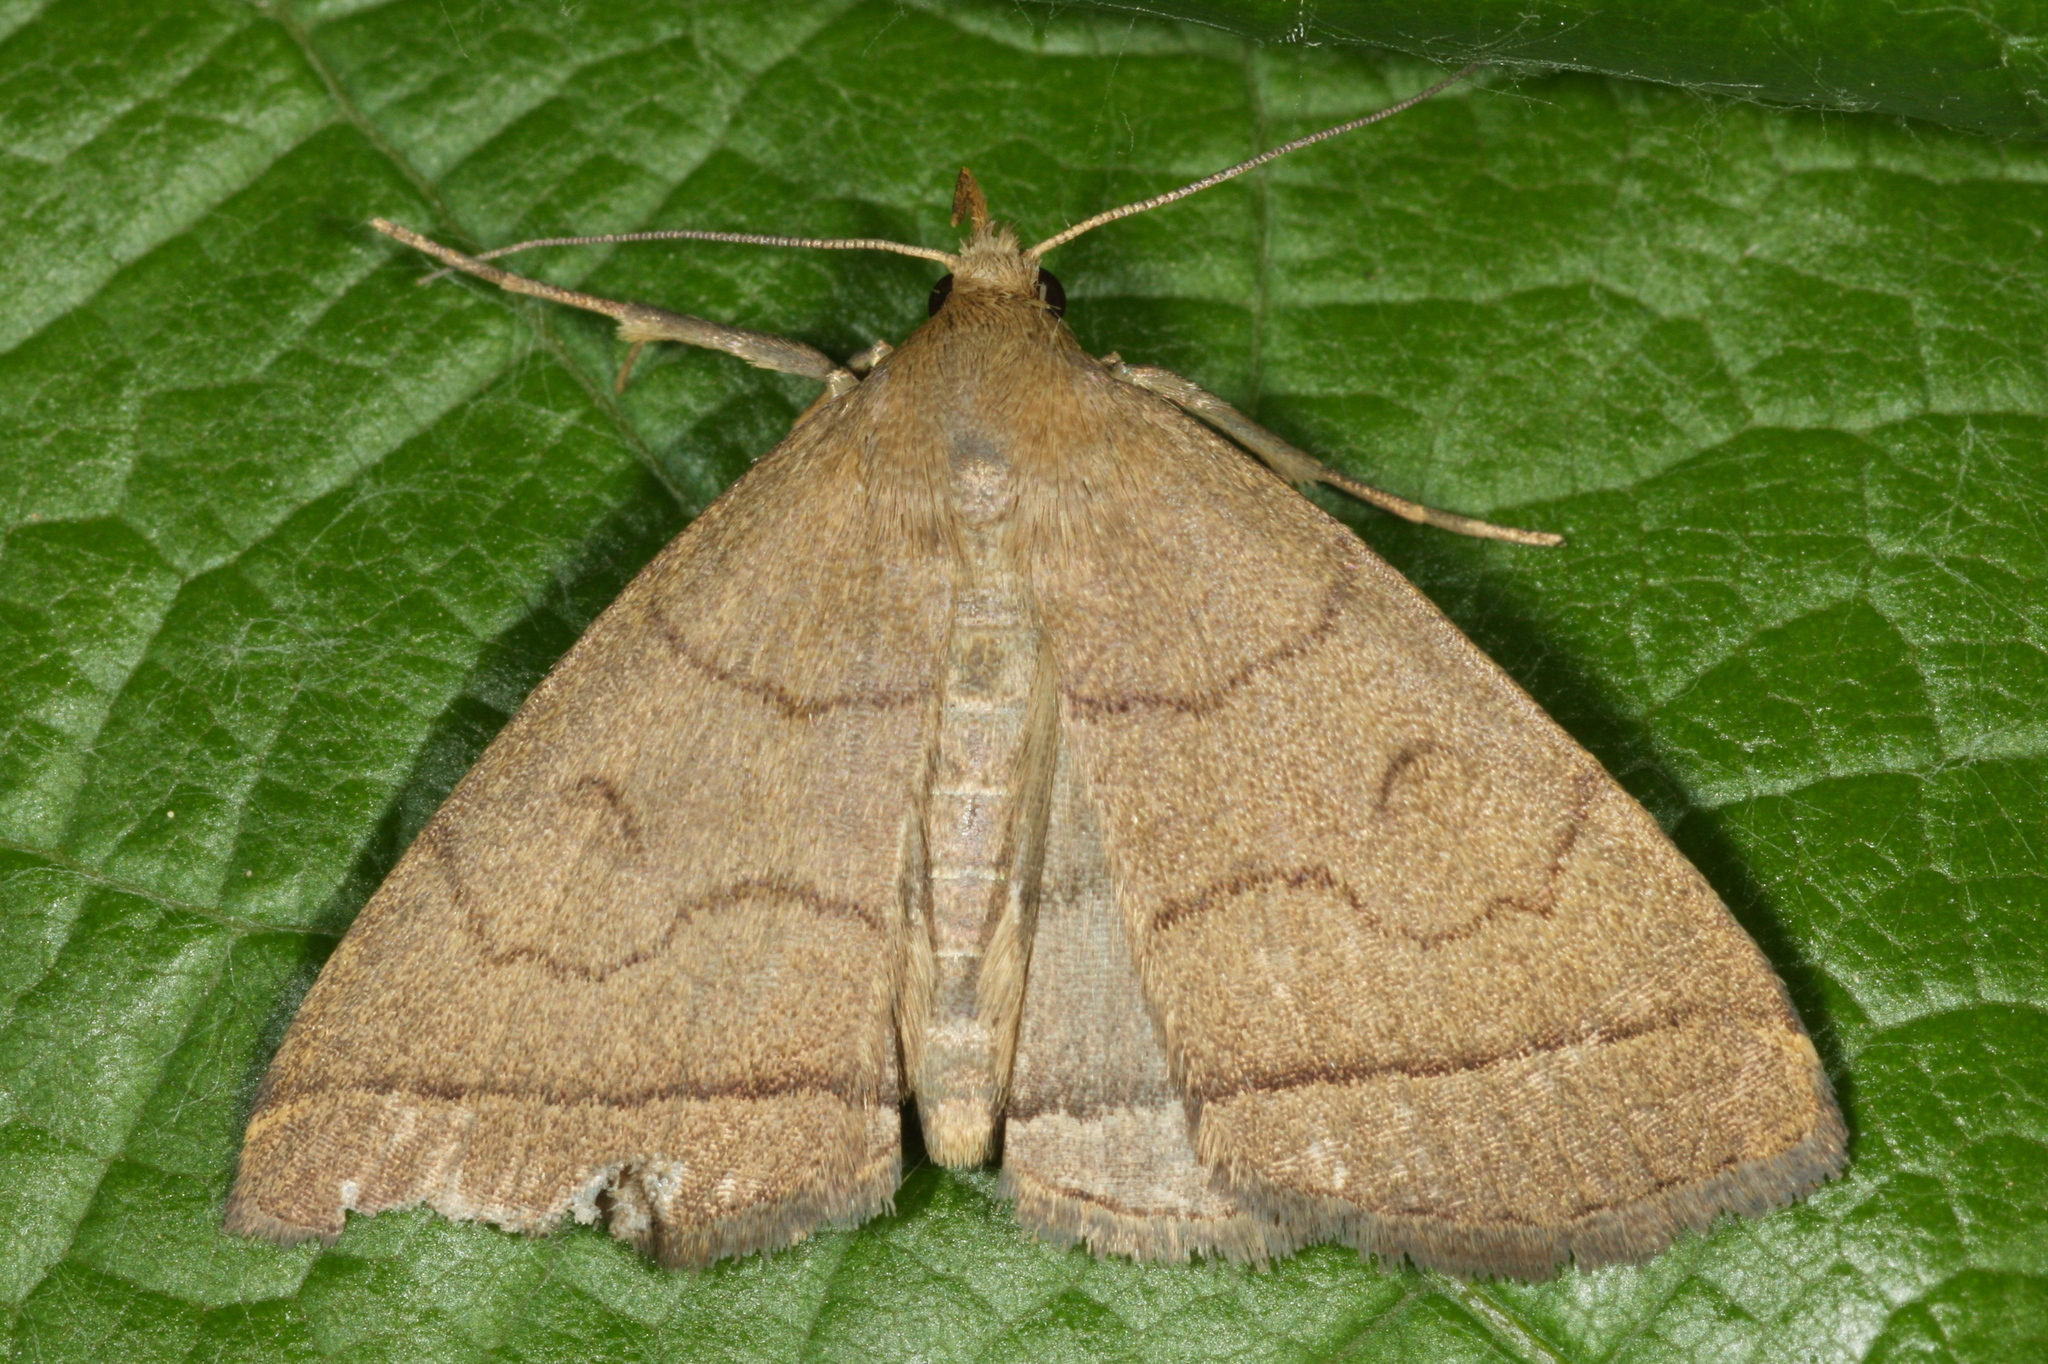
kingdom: Animalia
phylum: Arthropoda
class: Insecta
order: Lepidoptera
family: Erebidae
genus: Herminia
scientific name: Herminia tarsipennalis
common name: Fan-foot
